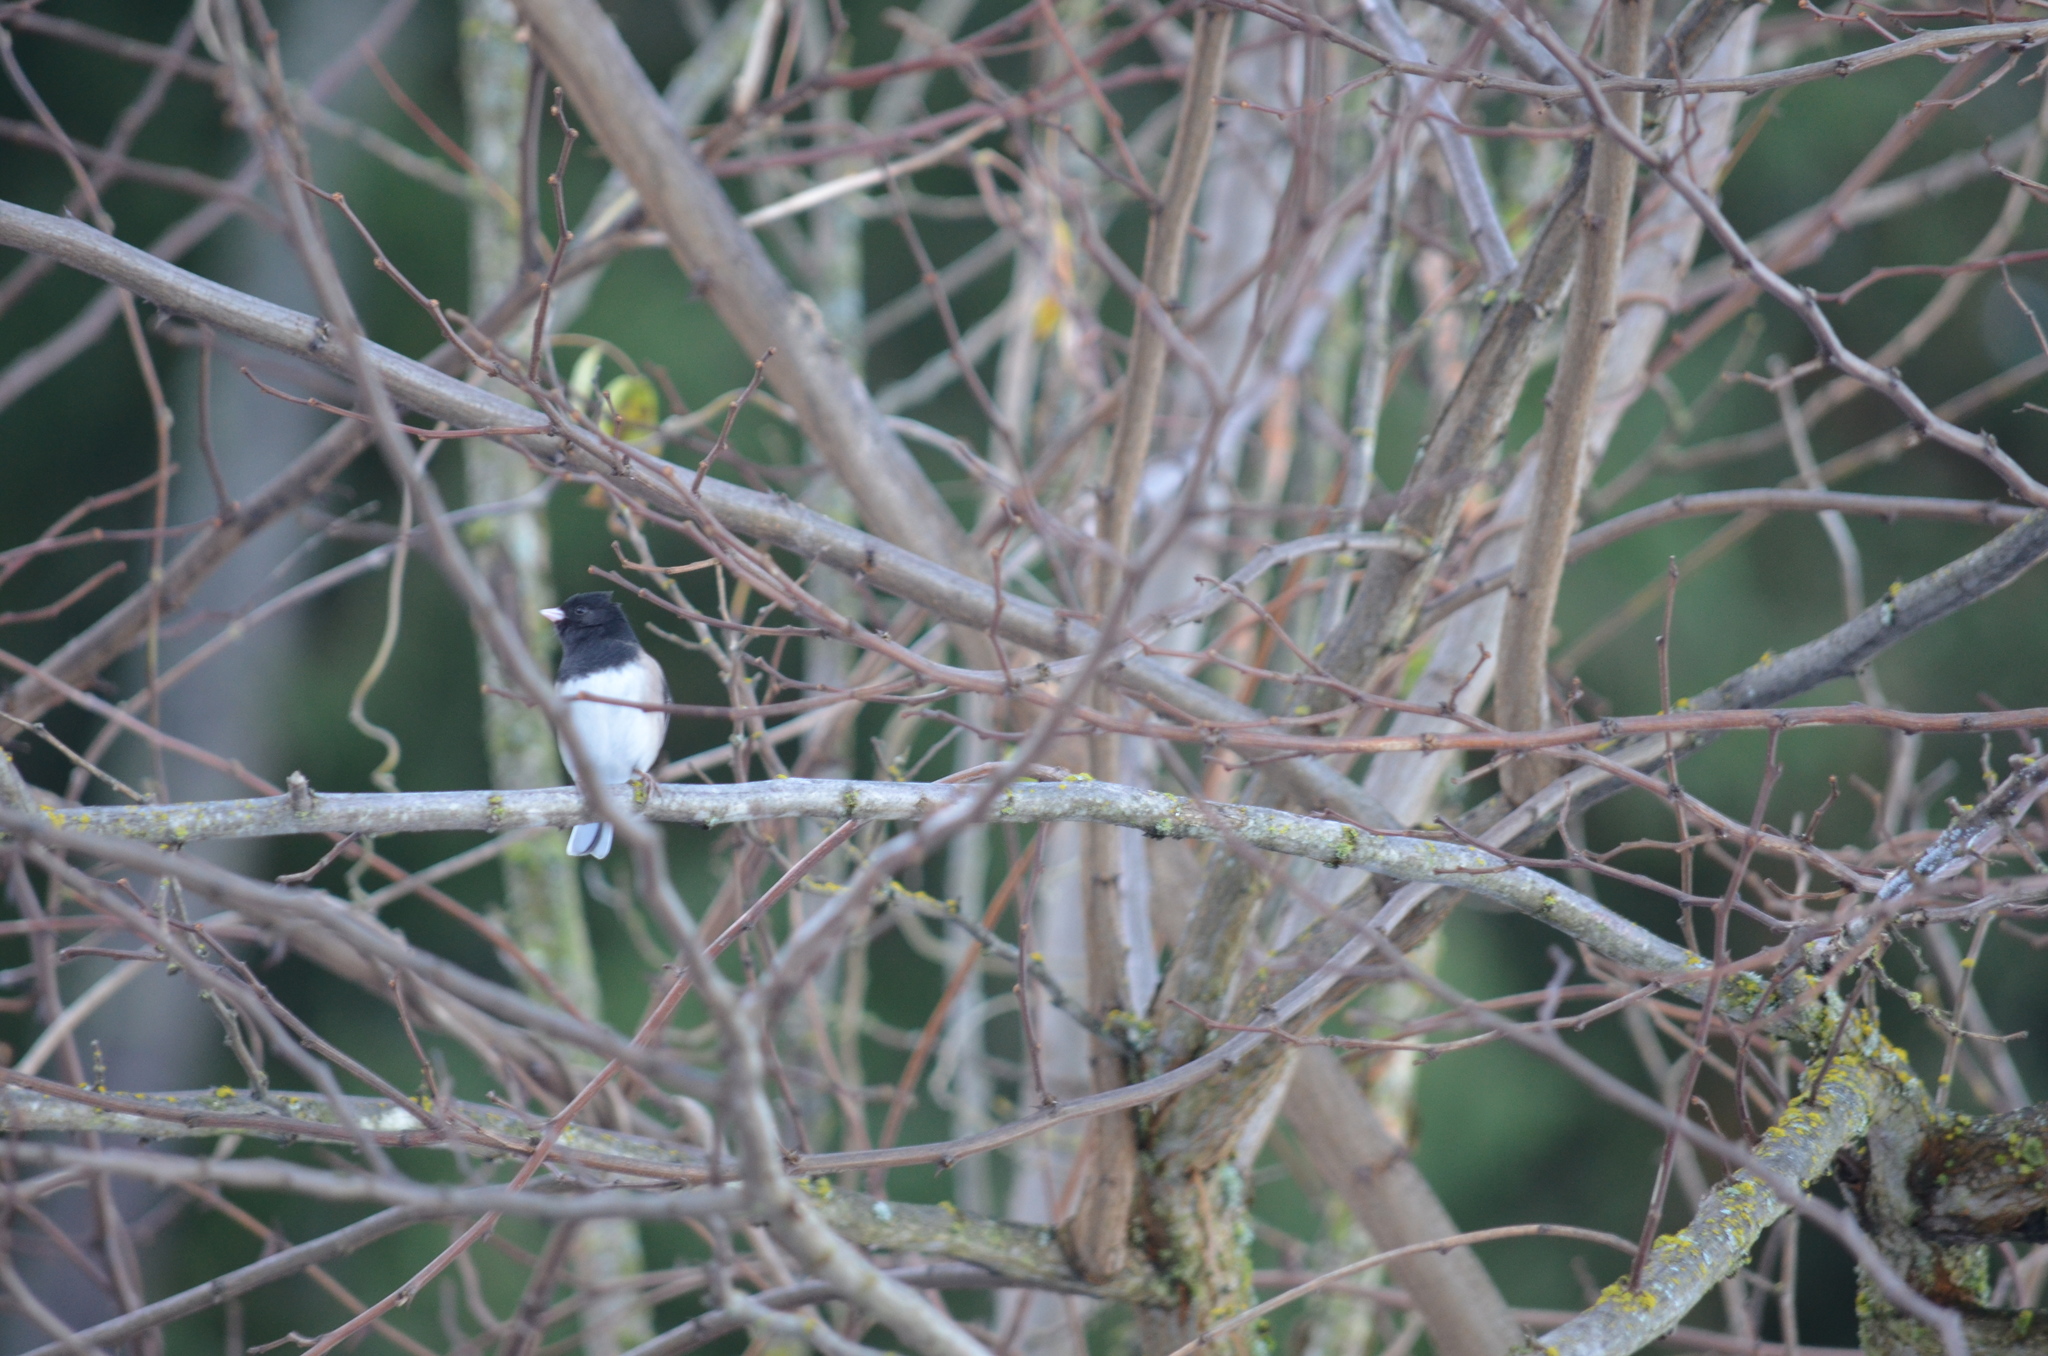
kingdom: Animalia
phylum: Chordata
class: Aves
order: Passeriformes
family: Passerellidae
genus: Junco
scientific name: Junco hyemalis
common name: Dark-eyed junco
